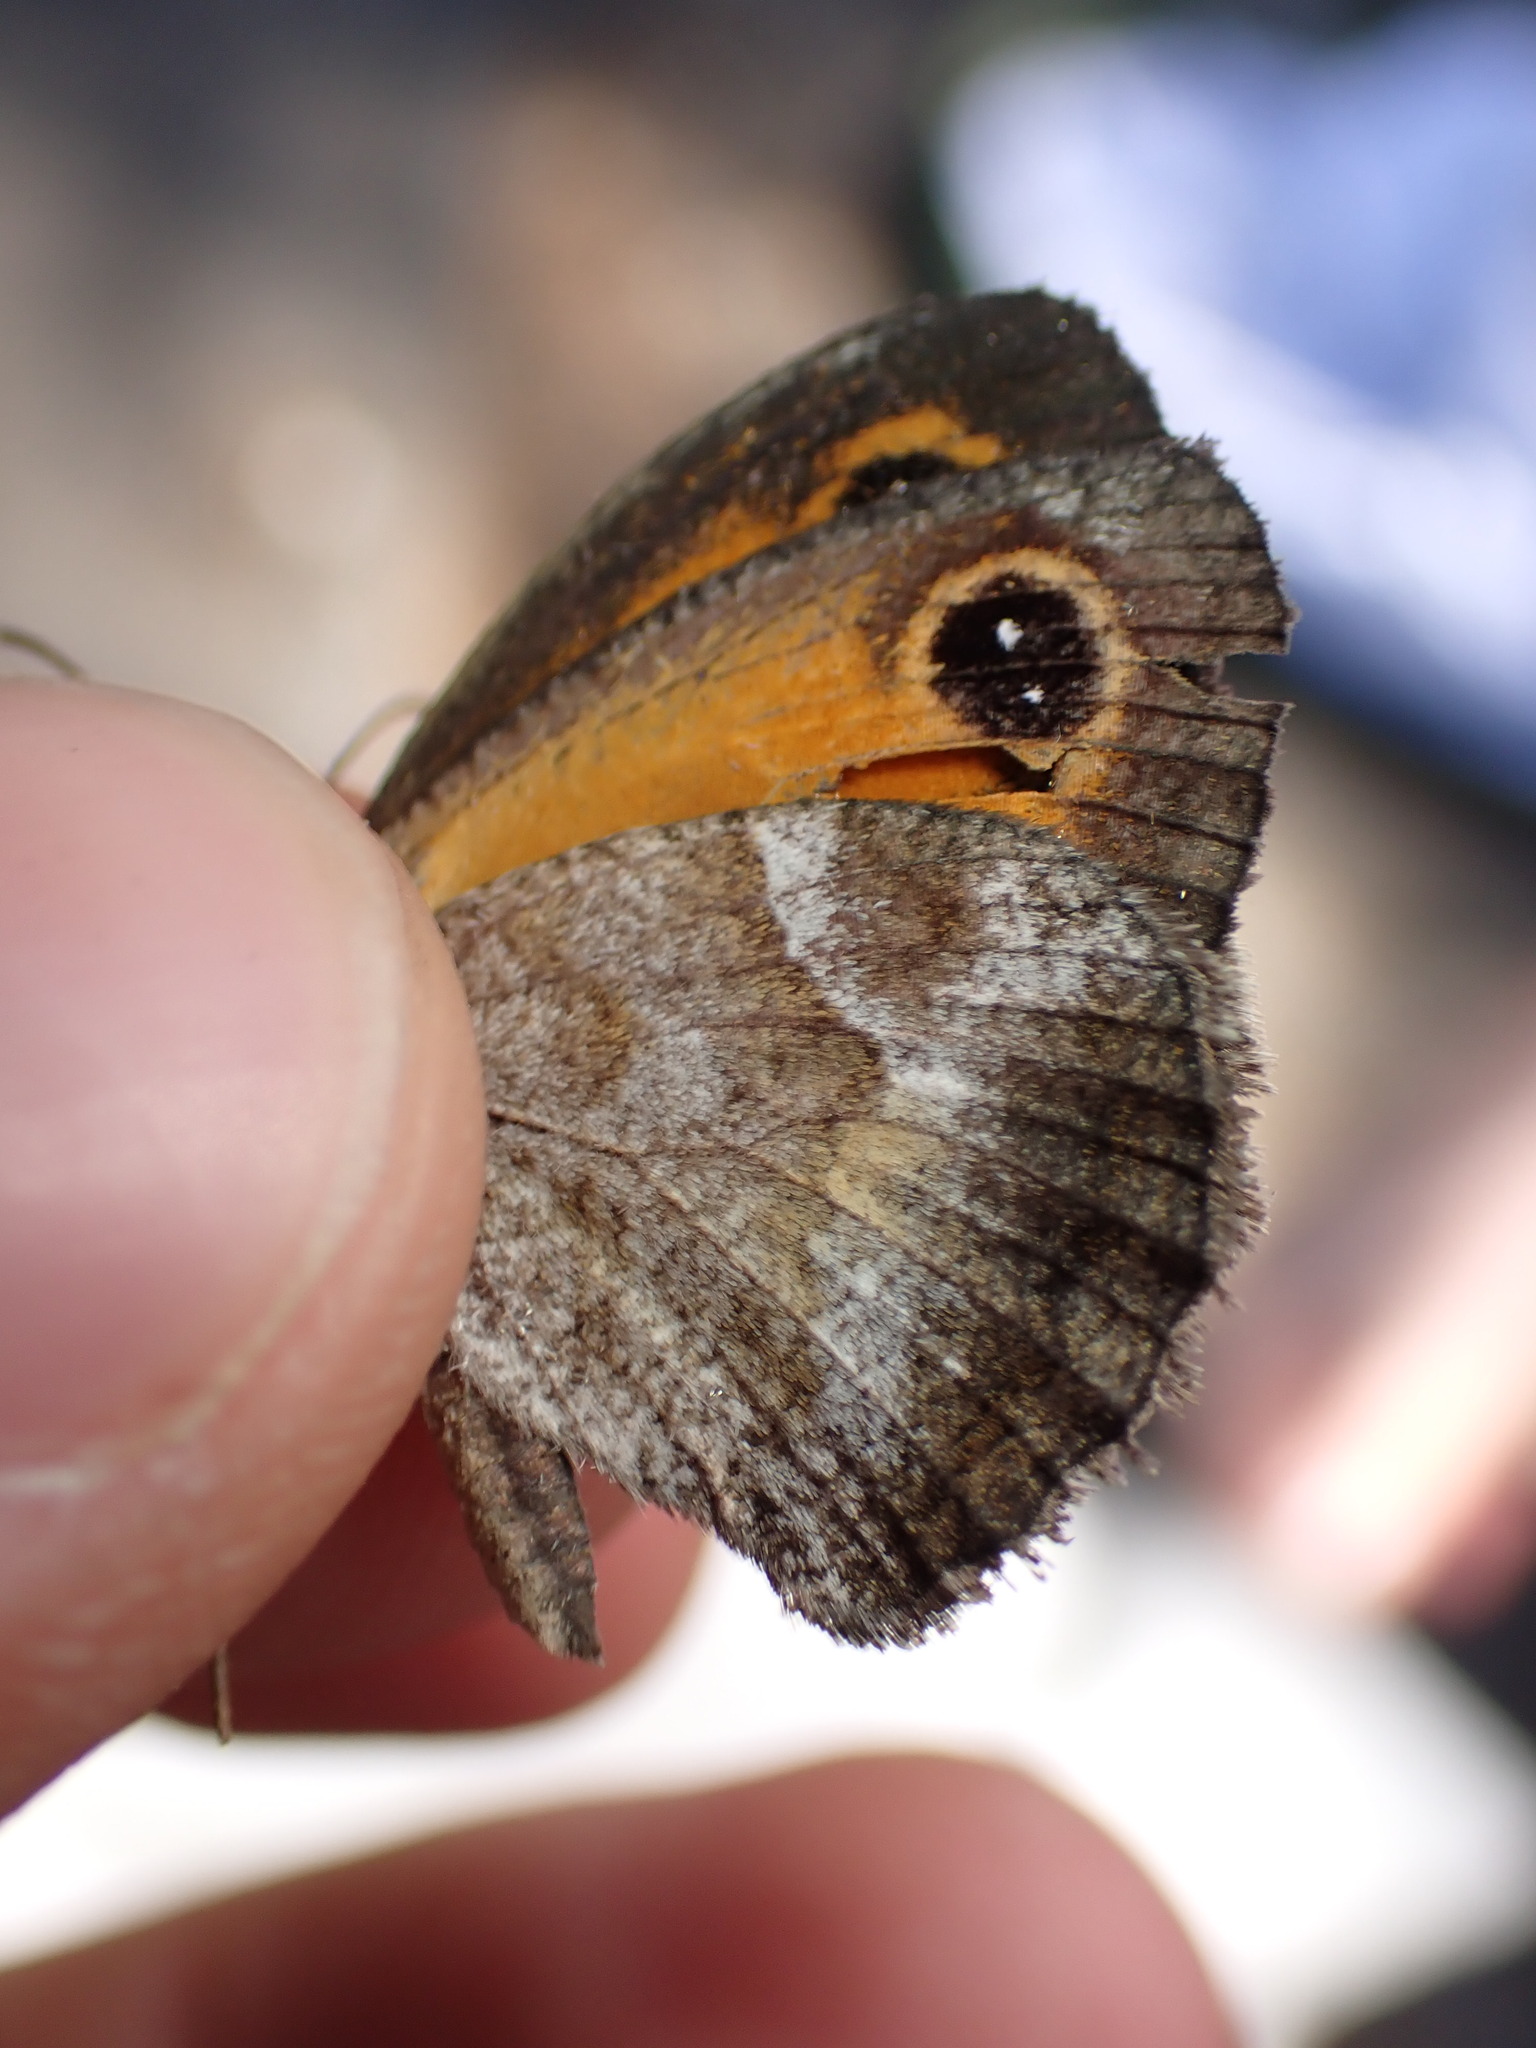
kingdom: Animalia
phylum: Arthropoda
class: Insecta
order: Lepidoptera
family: Nymphalidae
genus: Pyronia
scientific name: Pyronia cecilia
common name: Southern gatekeeper
